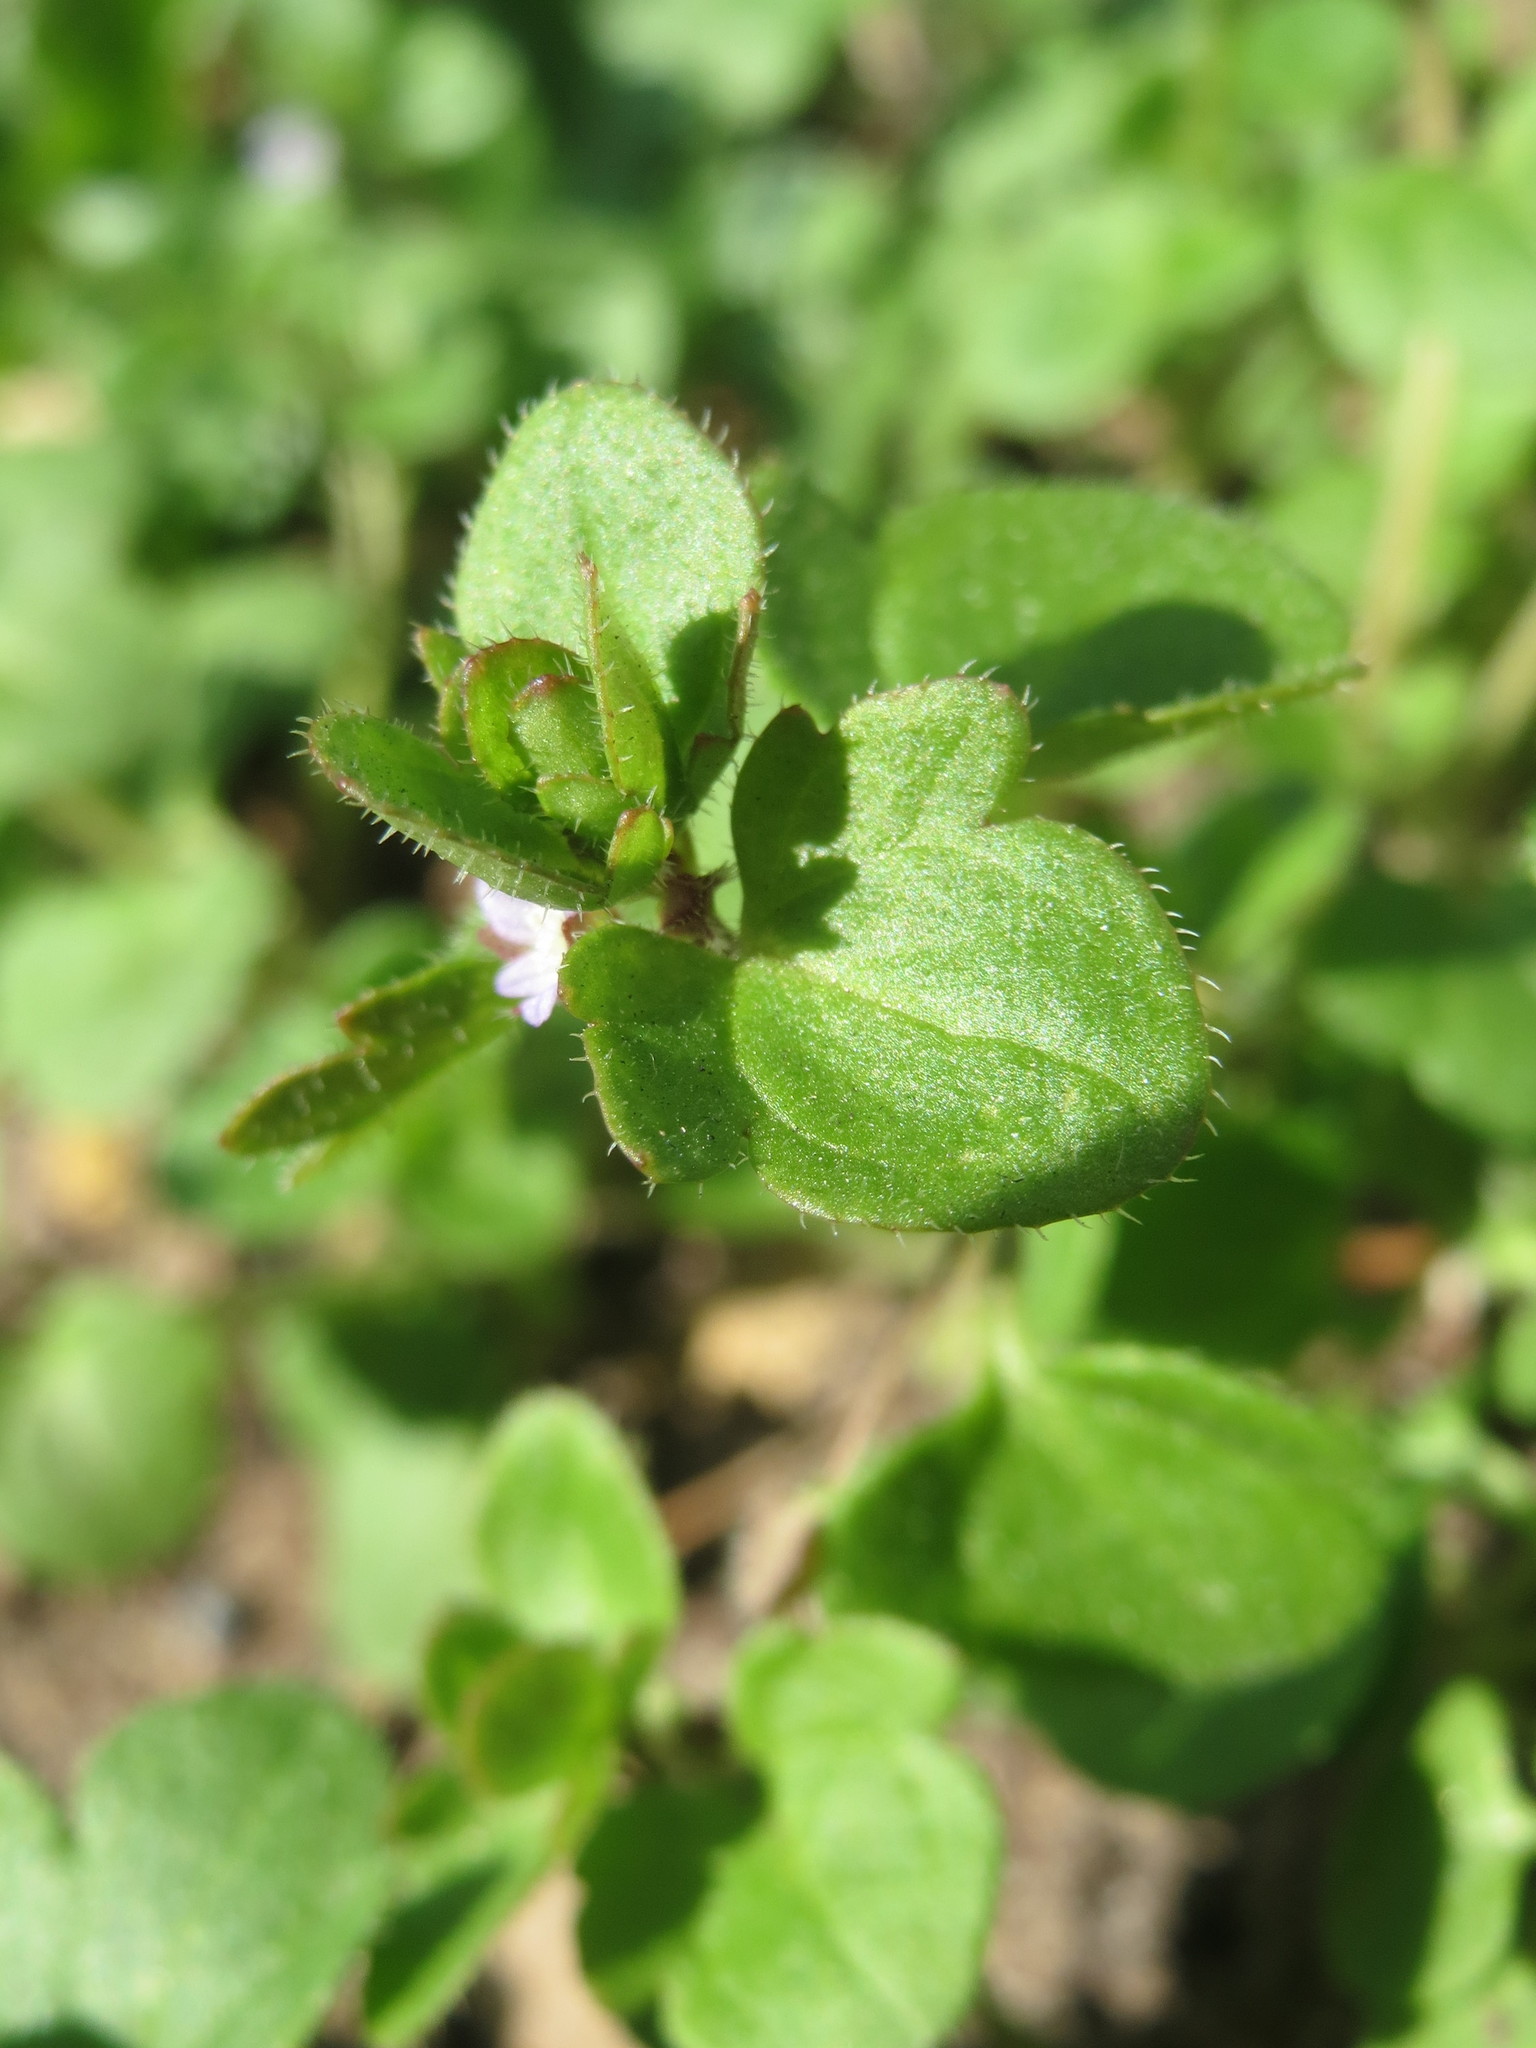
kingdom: Plantae
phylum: Tracheophyta
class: Magnoliopsida
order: Lamiales
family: Plantaginaceae
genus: Veronica
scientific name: Veronica hederifolia
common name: Ivy-leaved speedwell
